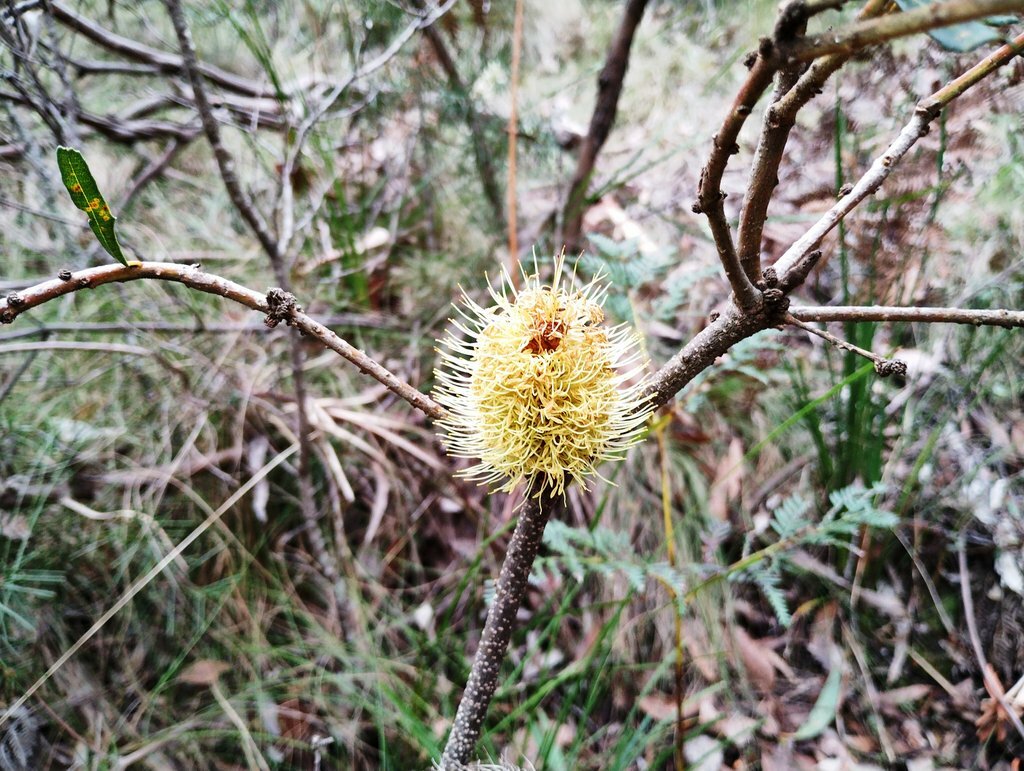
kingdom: Plantae
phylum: Tracheophyta
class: Magnoliopsida
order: Proteales
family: Proteaceae
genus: Banksia
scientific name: Banksia marginata
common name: Silver banksia
